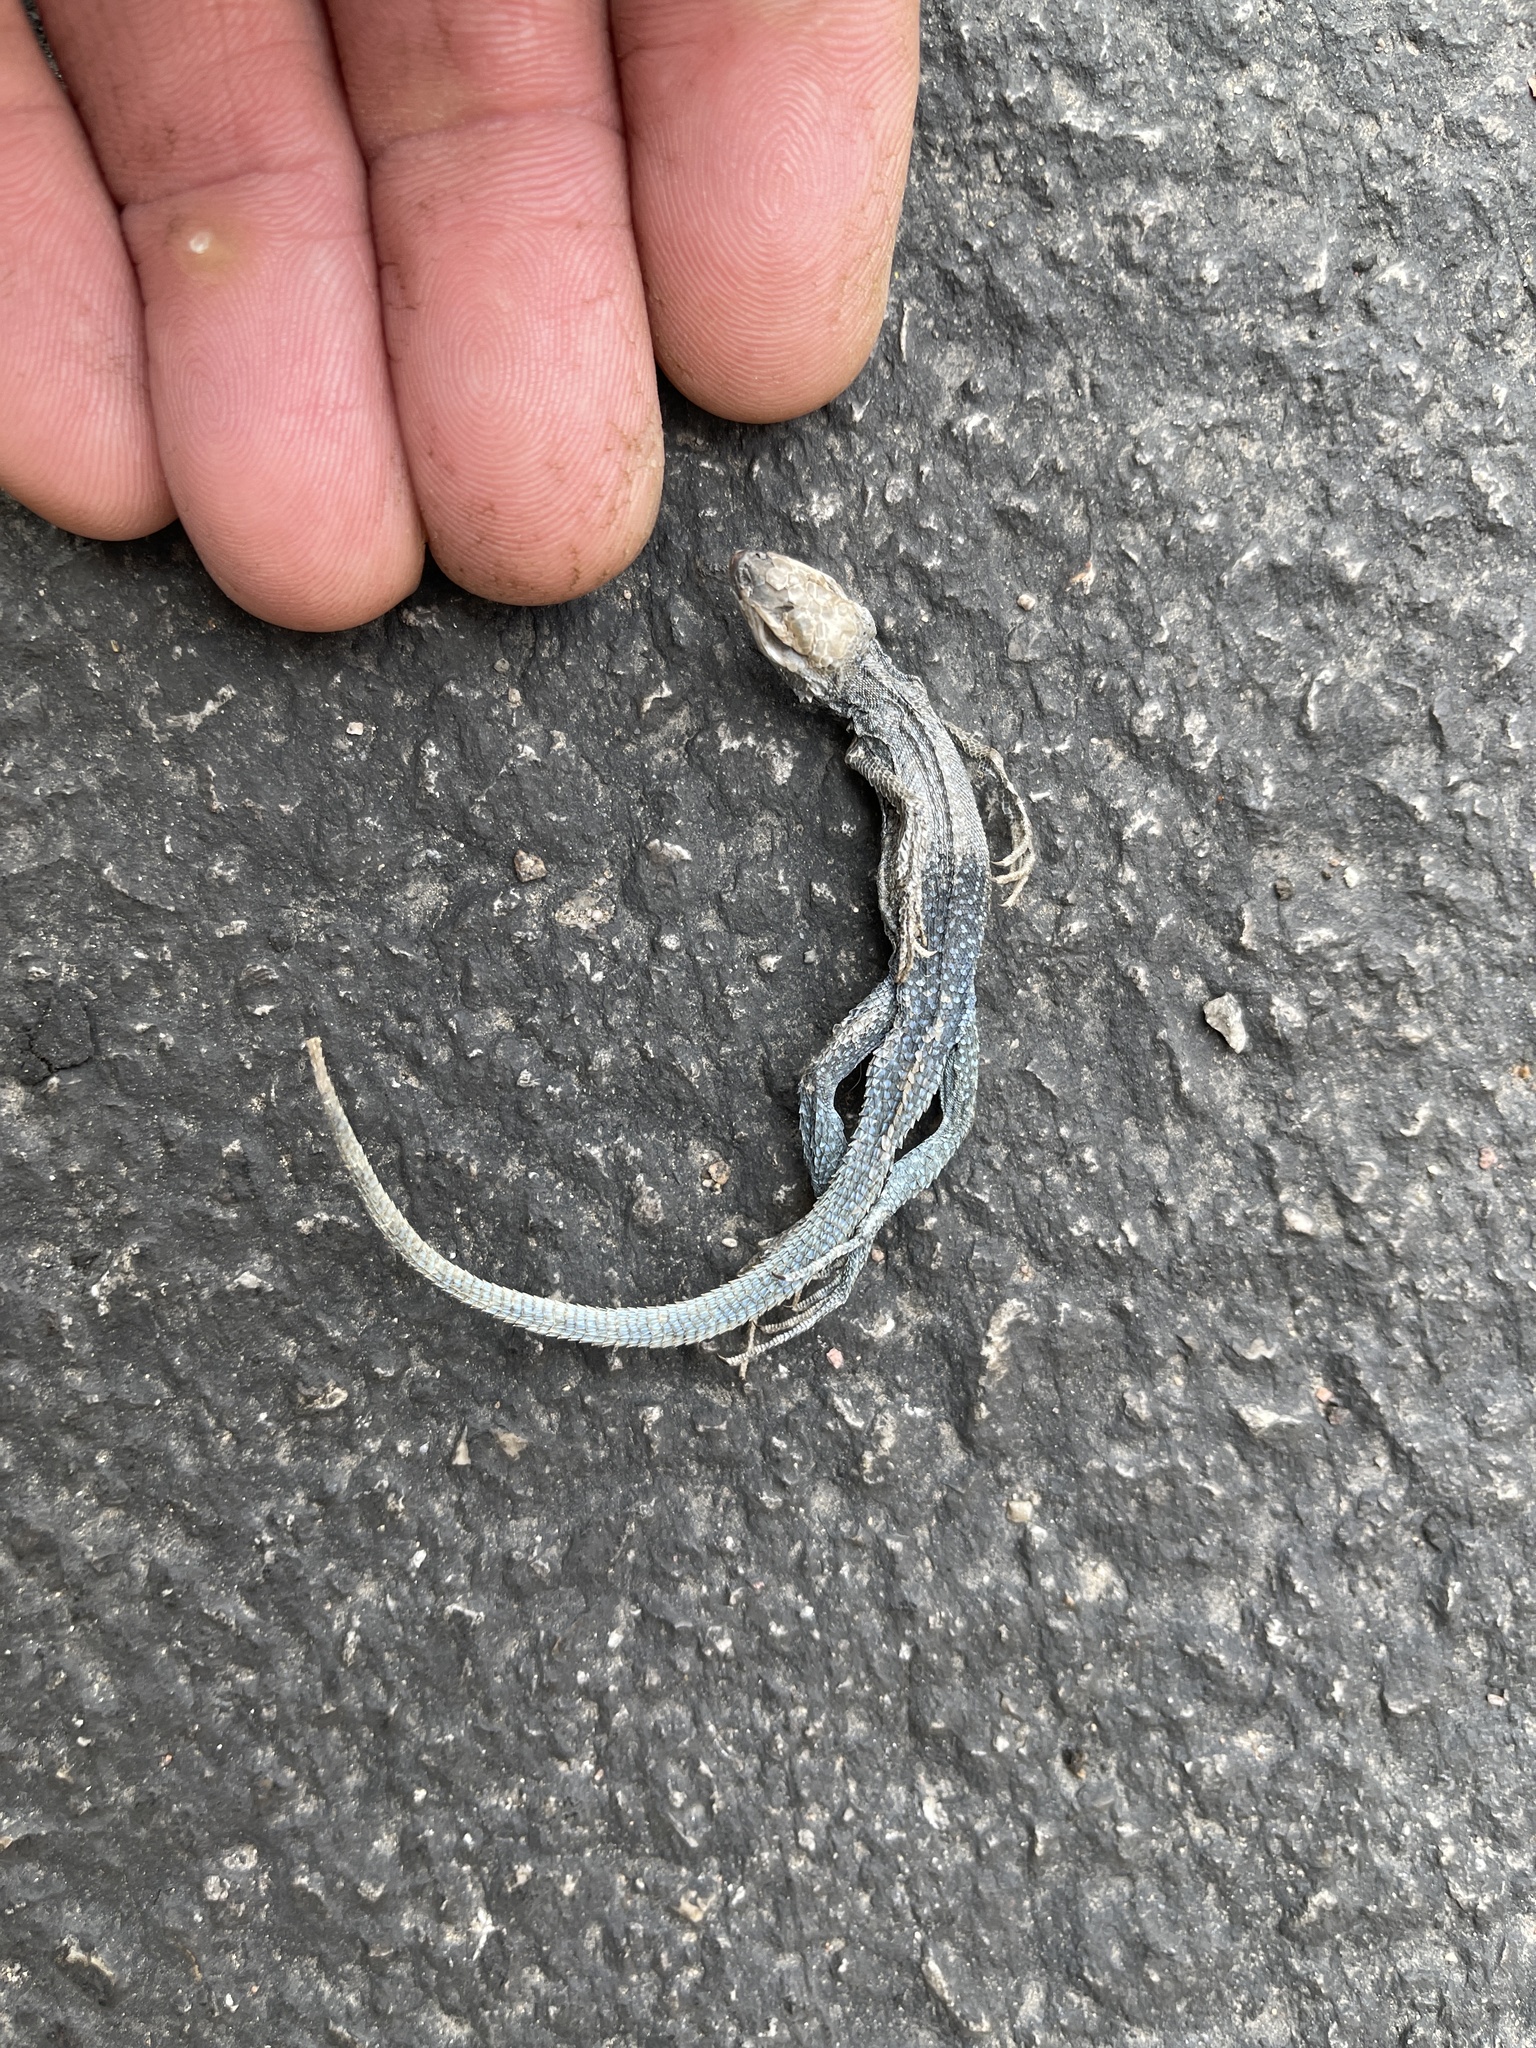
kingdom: Animalia
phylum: Chordata
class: Squamata
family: Phrynosomatidae
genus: Uta
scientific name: Uta stansburiana
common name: Side-blotched lizard
